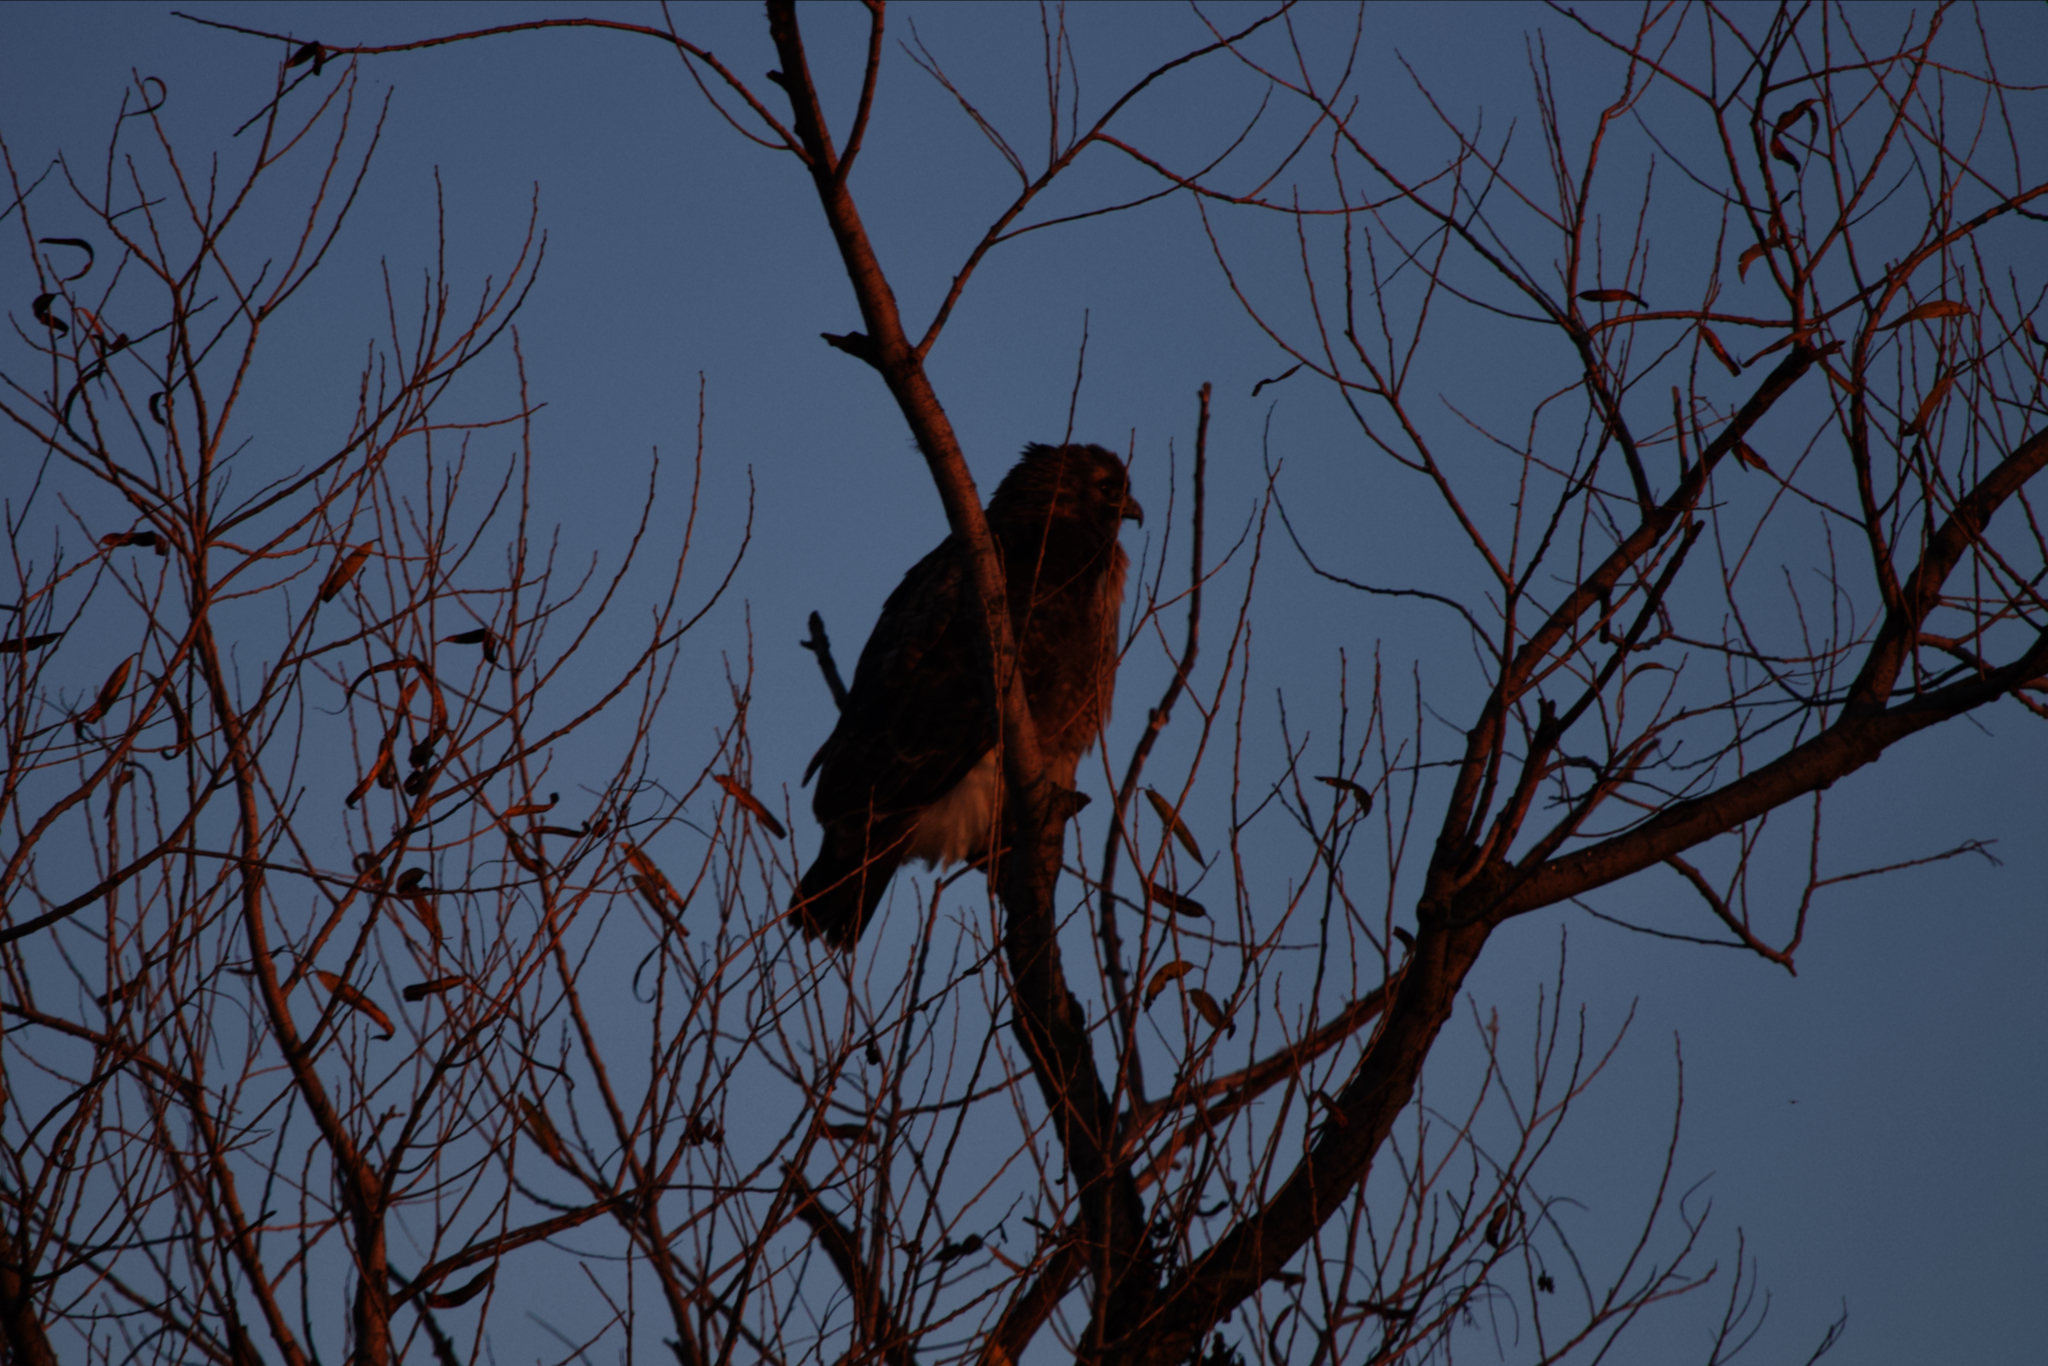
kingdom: Animalia
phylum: Chordata
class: Aves
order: Accipitriformes
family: Accipitridae
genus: Buteo
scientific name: Buteo jamaicensis
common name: Red-tailed hawk
